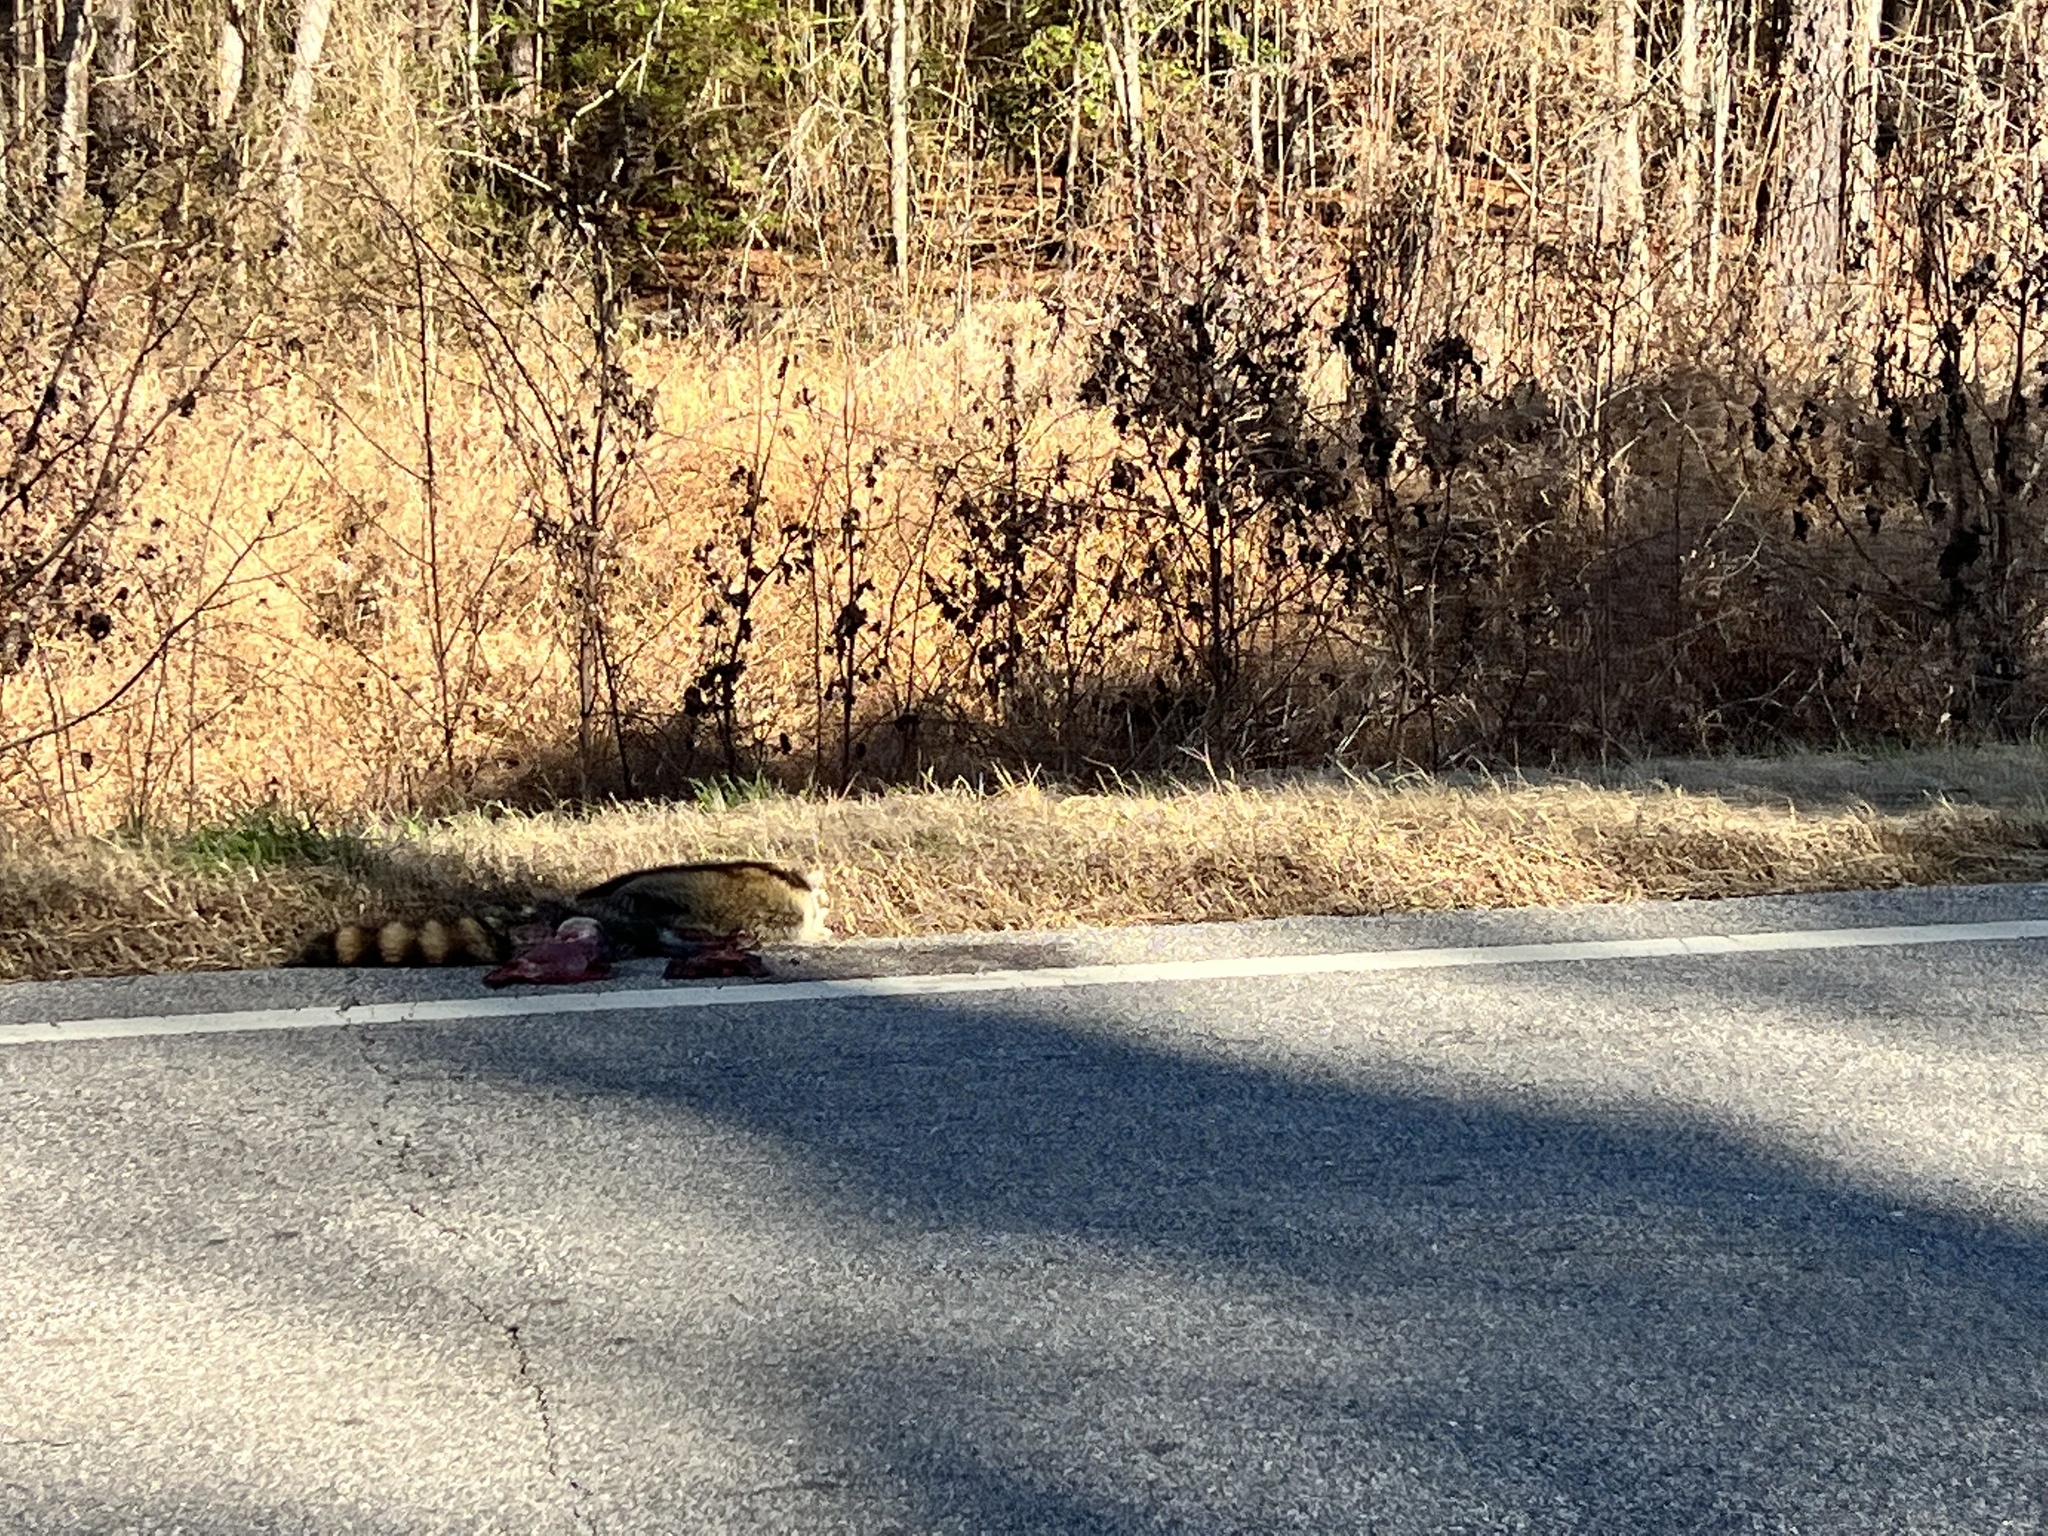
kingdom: Animalia
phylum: Chordata
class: Mammalia
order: Carnivora
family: Procyonidae
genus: Procyon
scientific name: Procyon lotor
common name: Raccoon
